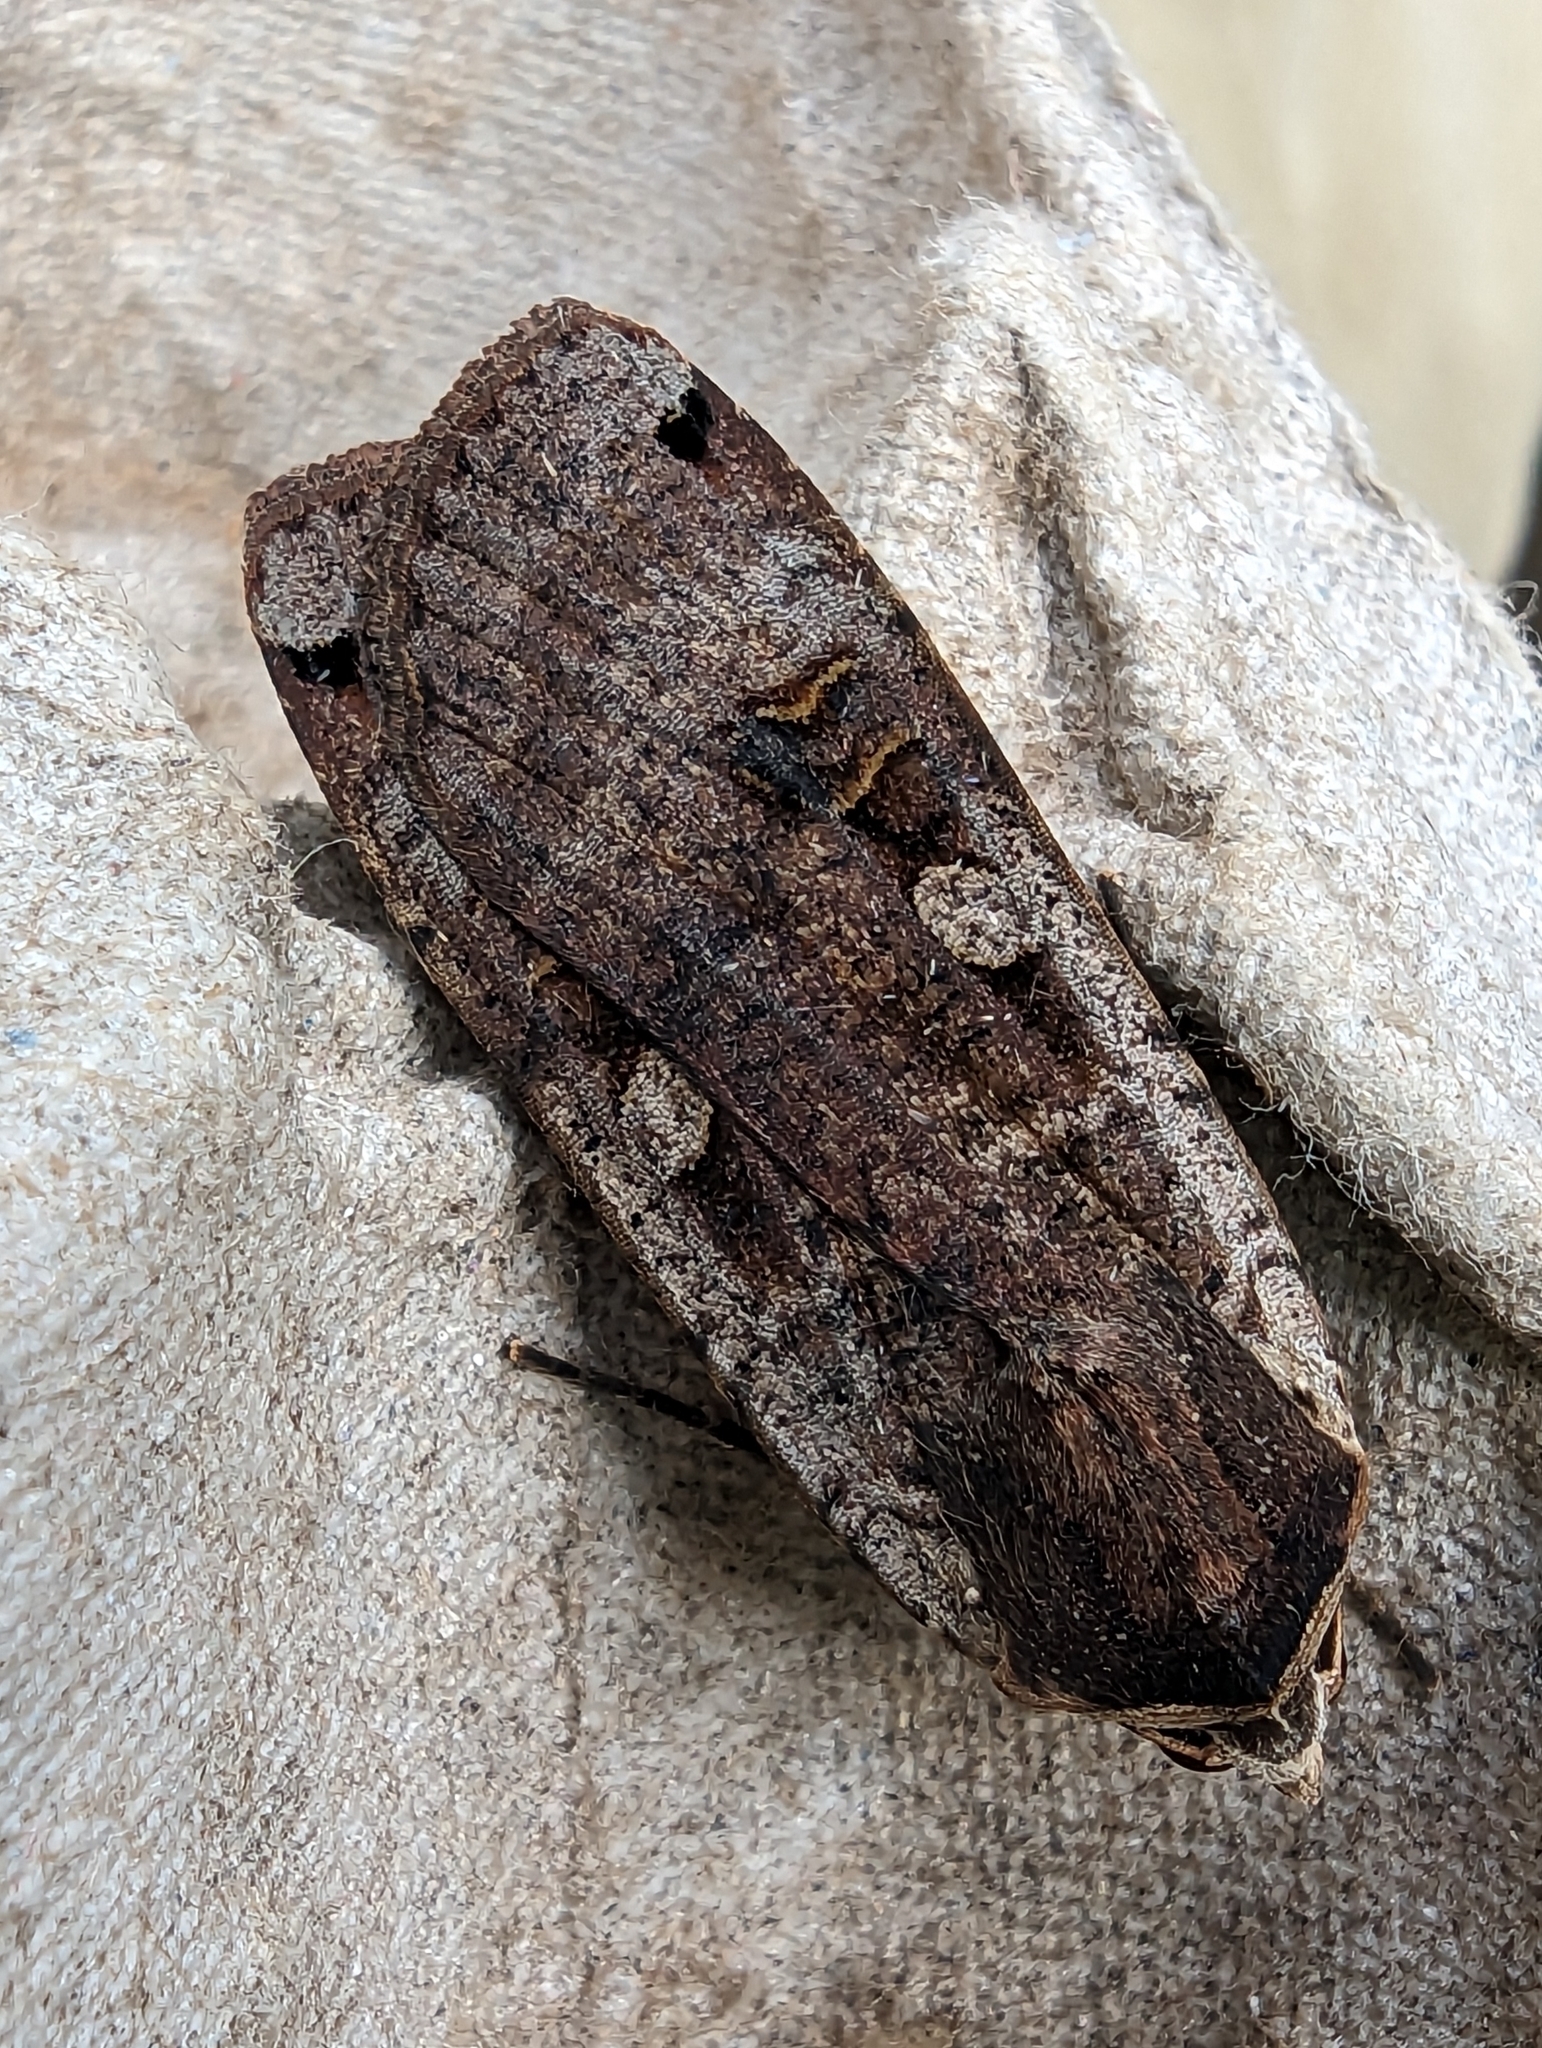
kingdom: Animalia
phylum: Arthropoda
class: Insecta
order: Lepidoptera
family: Noctuidae
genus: Noctua
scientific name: Noctua pronuba
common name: Large yellow underwing
